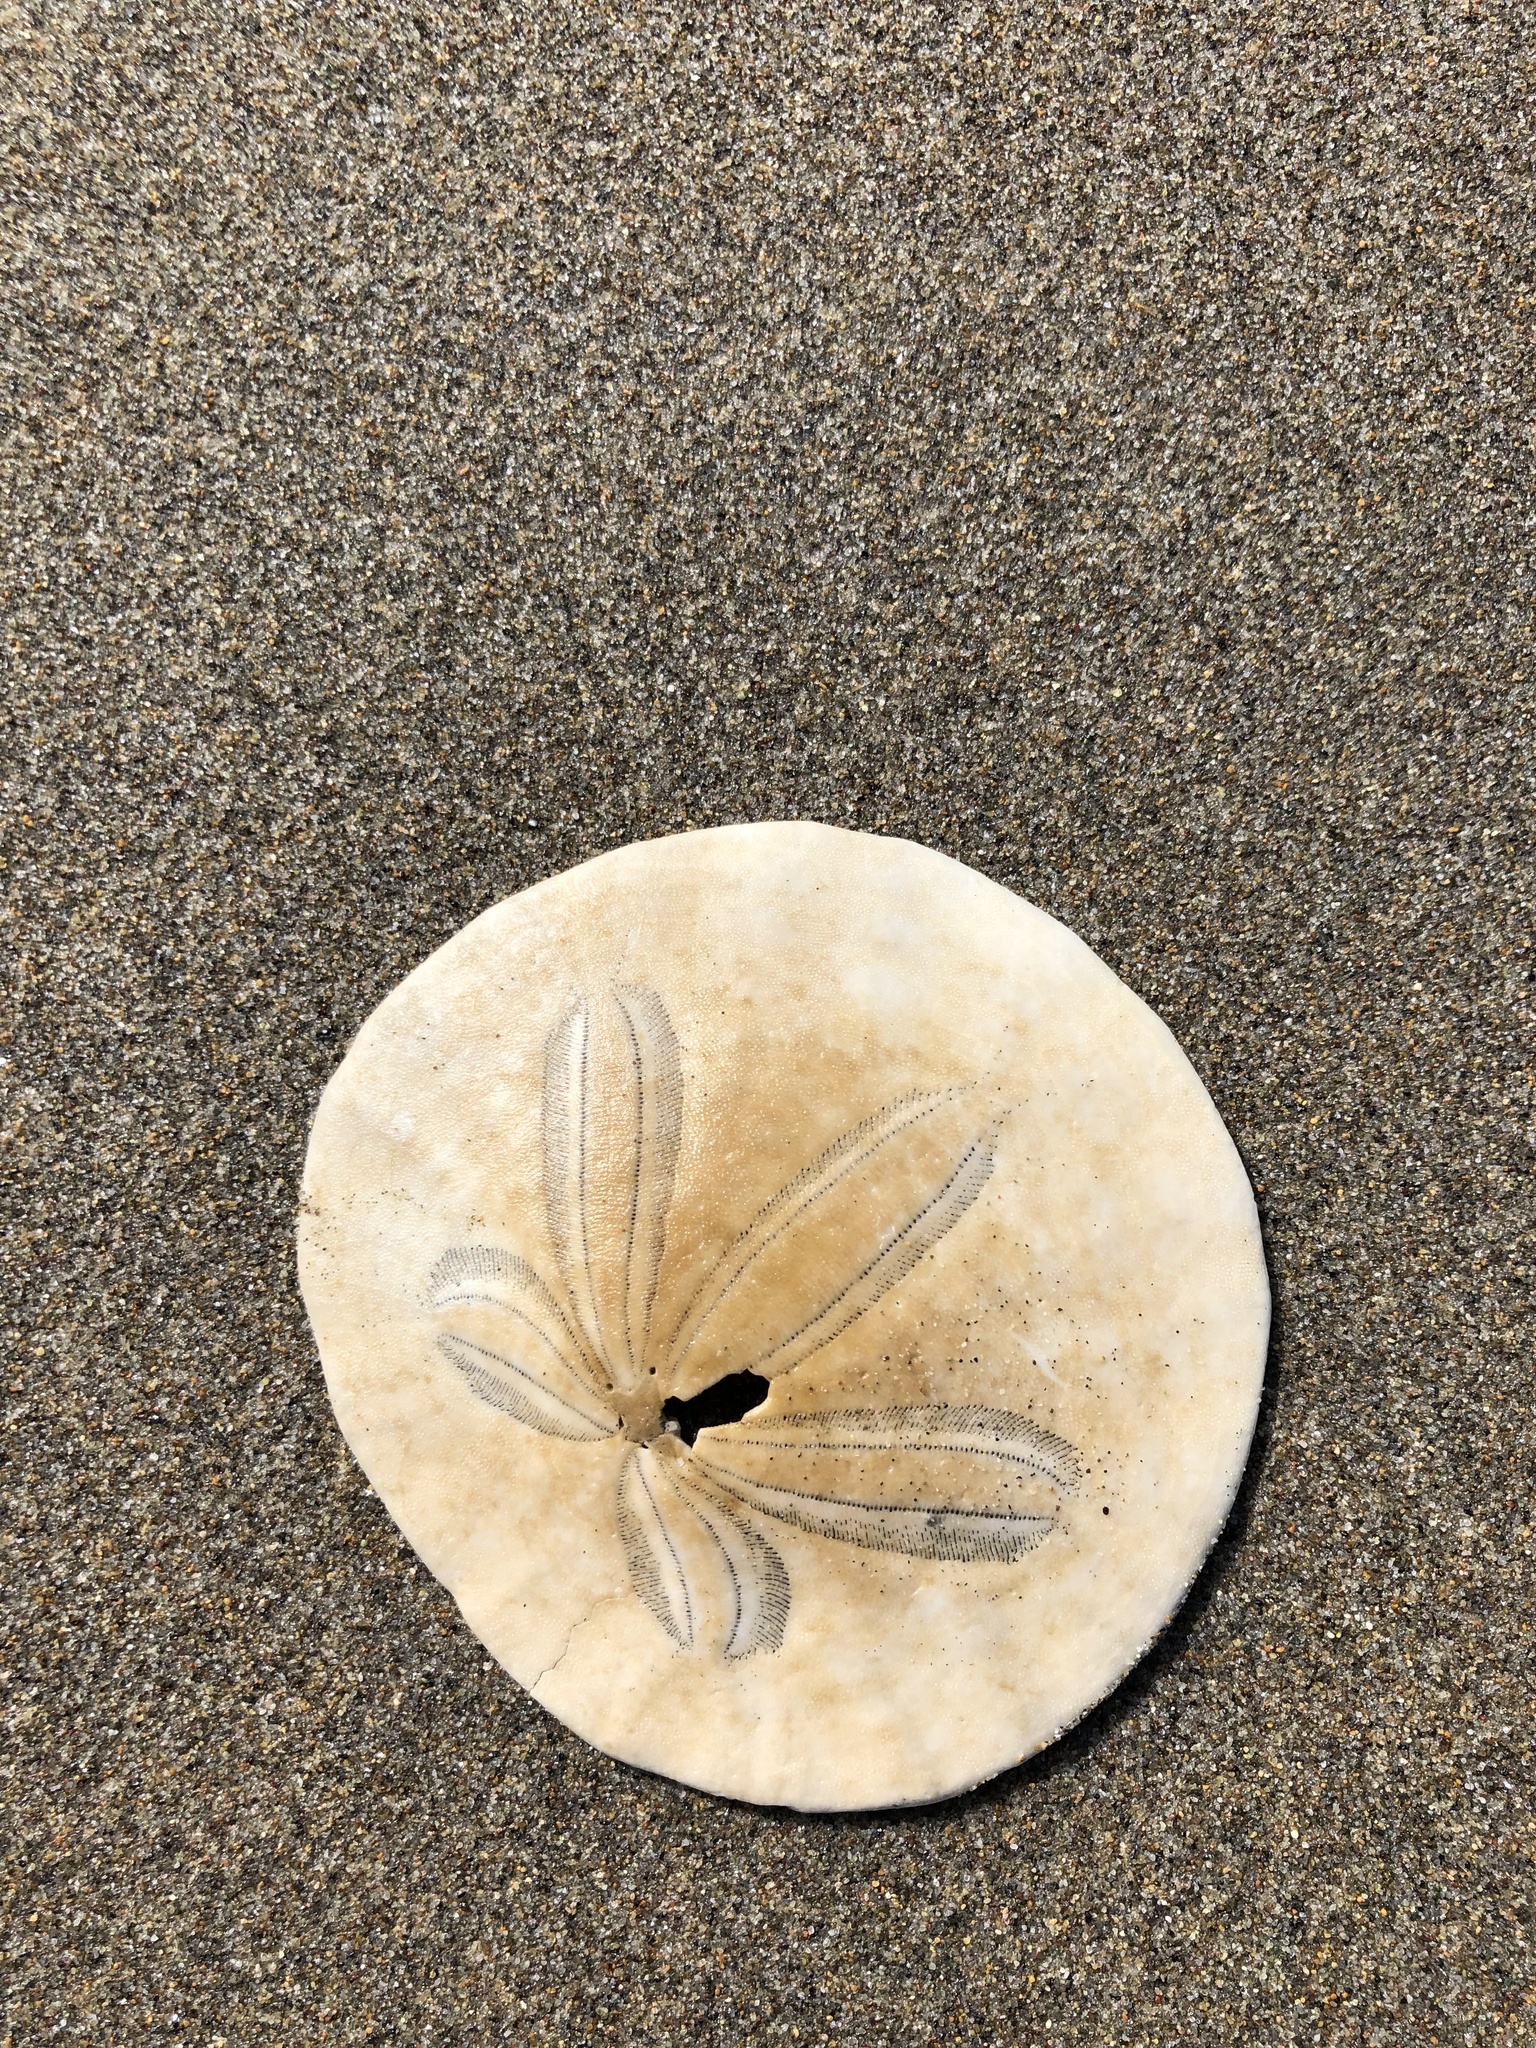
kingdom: Animalia
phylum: Echinodermata
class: Echinoidea
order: Echinolampadacea
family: Dendrasteridae
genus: Dendraster
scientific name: Dendraster excentricus
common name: Eccentric sand dollar sea urchin
